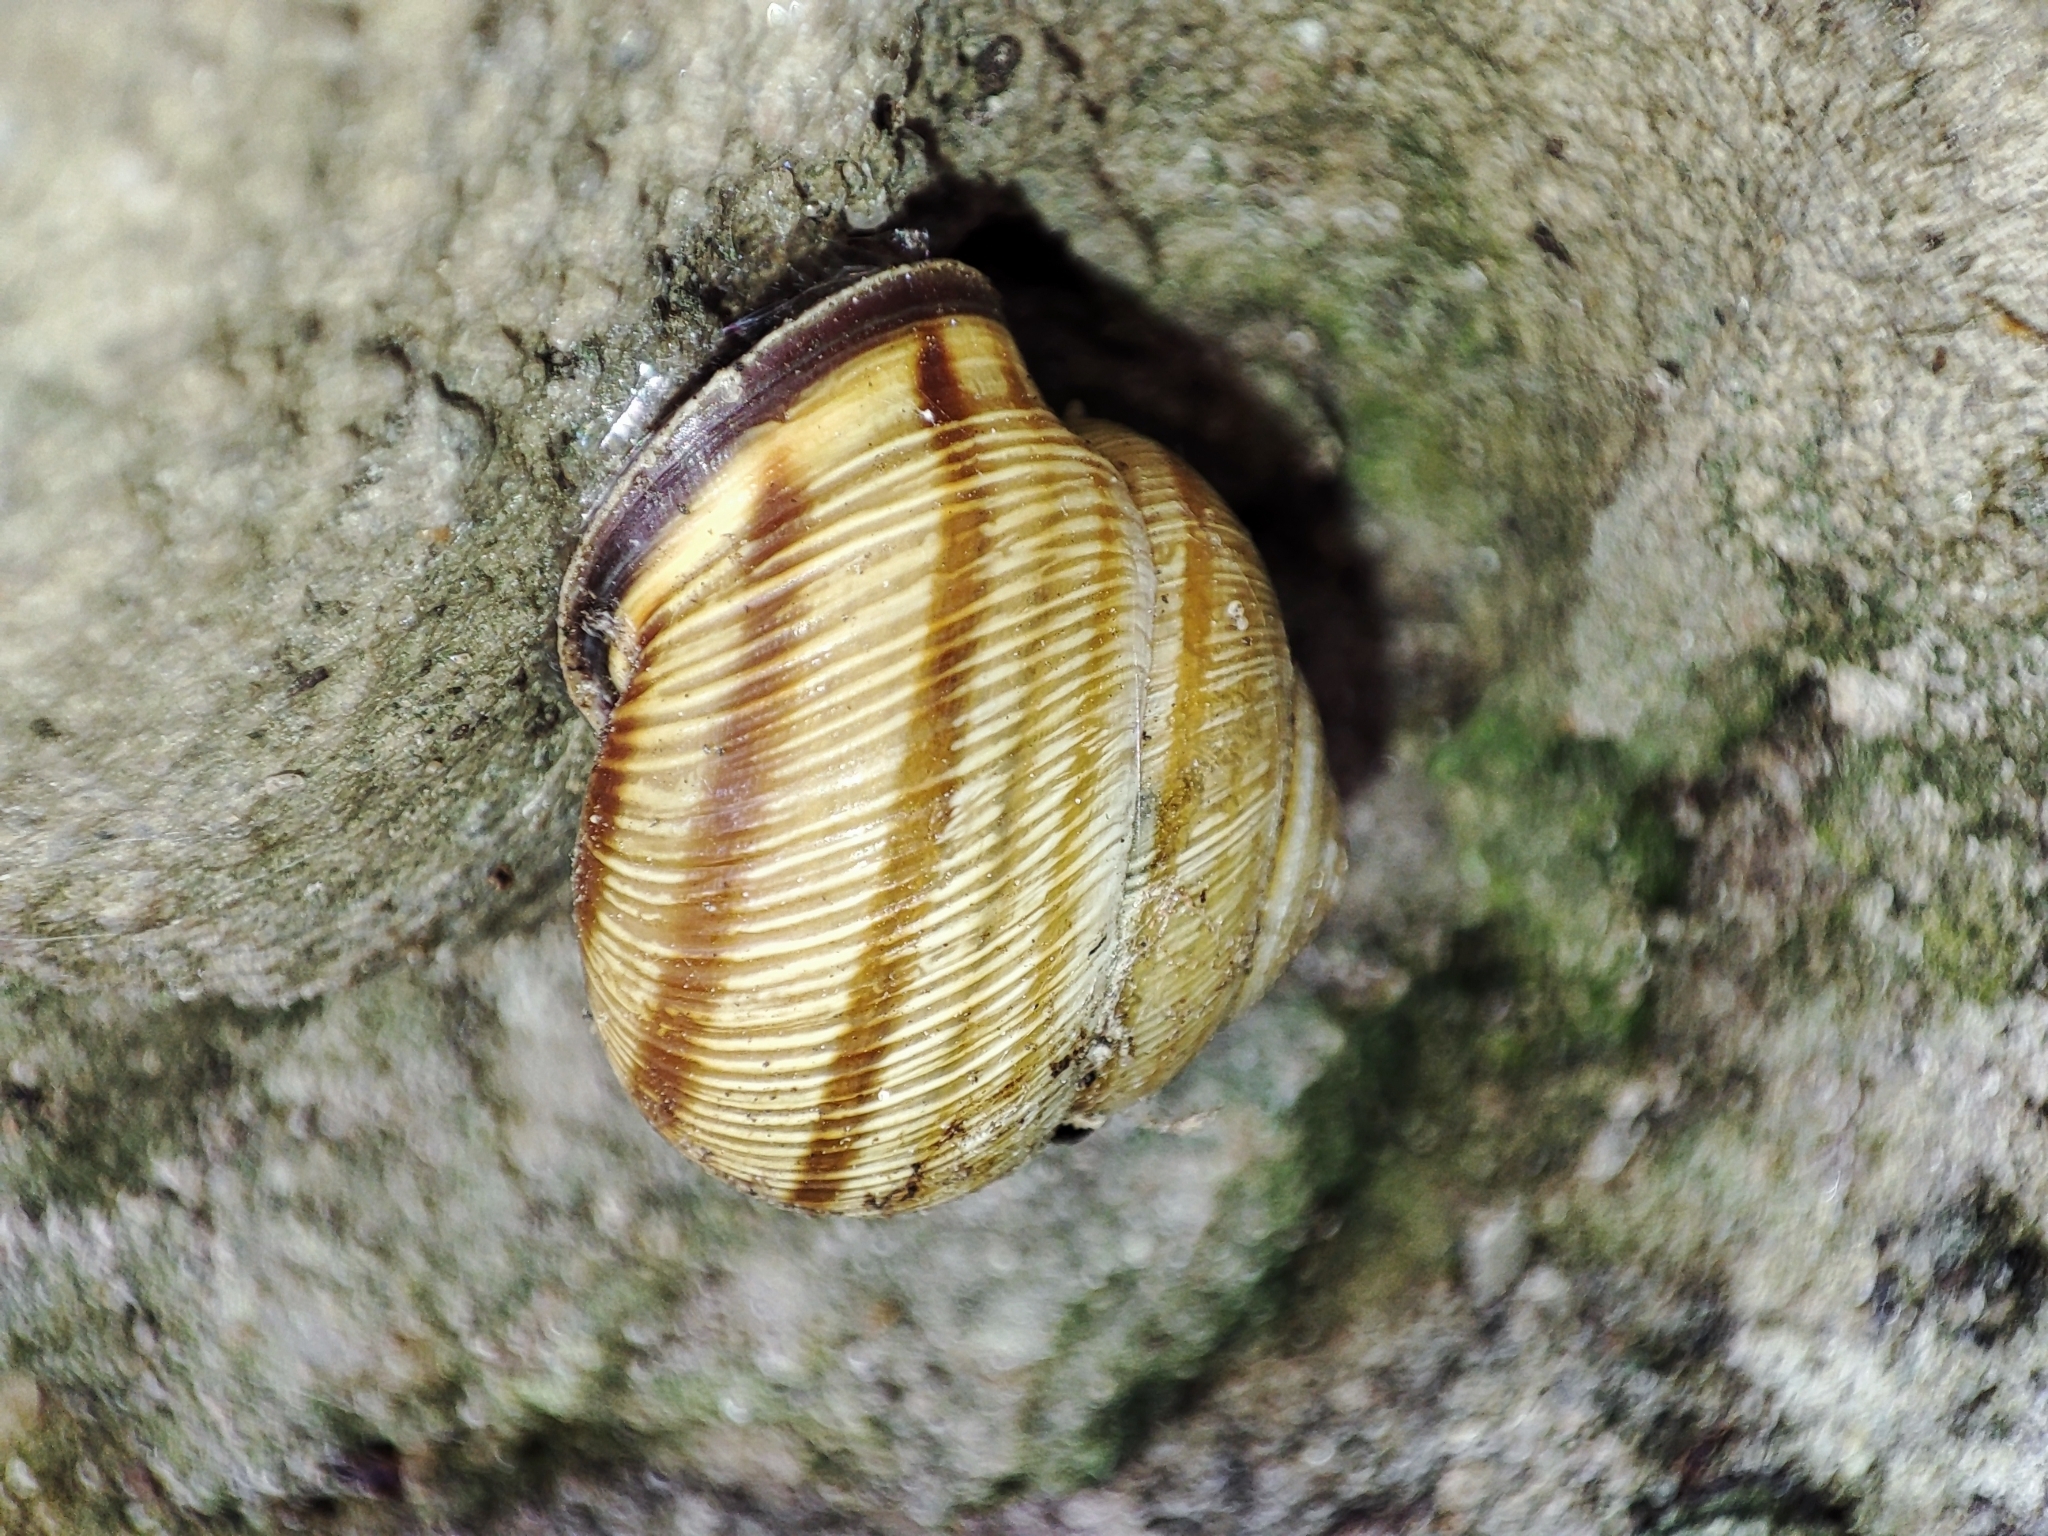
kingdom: Animalia
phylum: Mollusca
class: Gastropoda
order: Stylommatophora
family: Helicidae
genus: Caucasotachea
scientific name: Caucasotachea vindobonensis
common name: European helicid land snail
